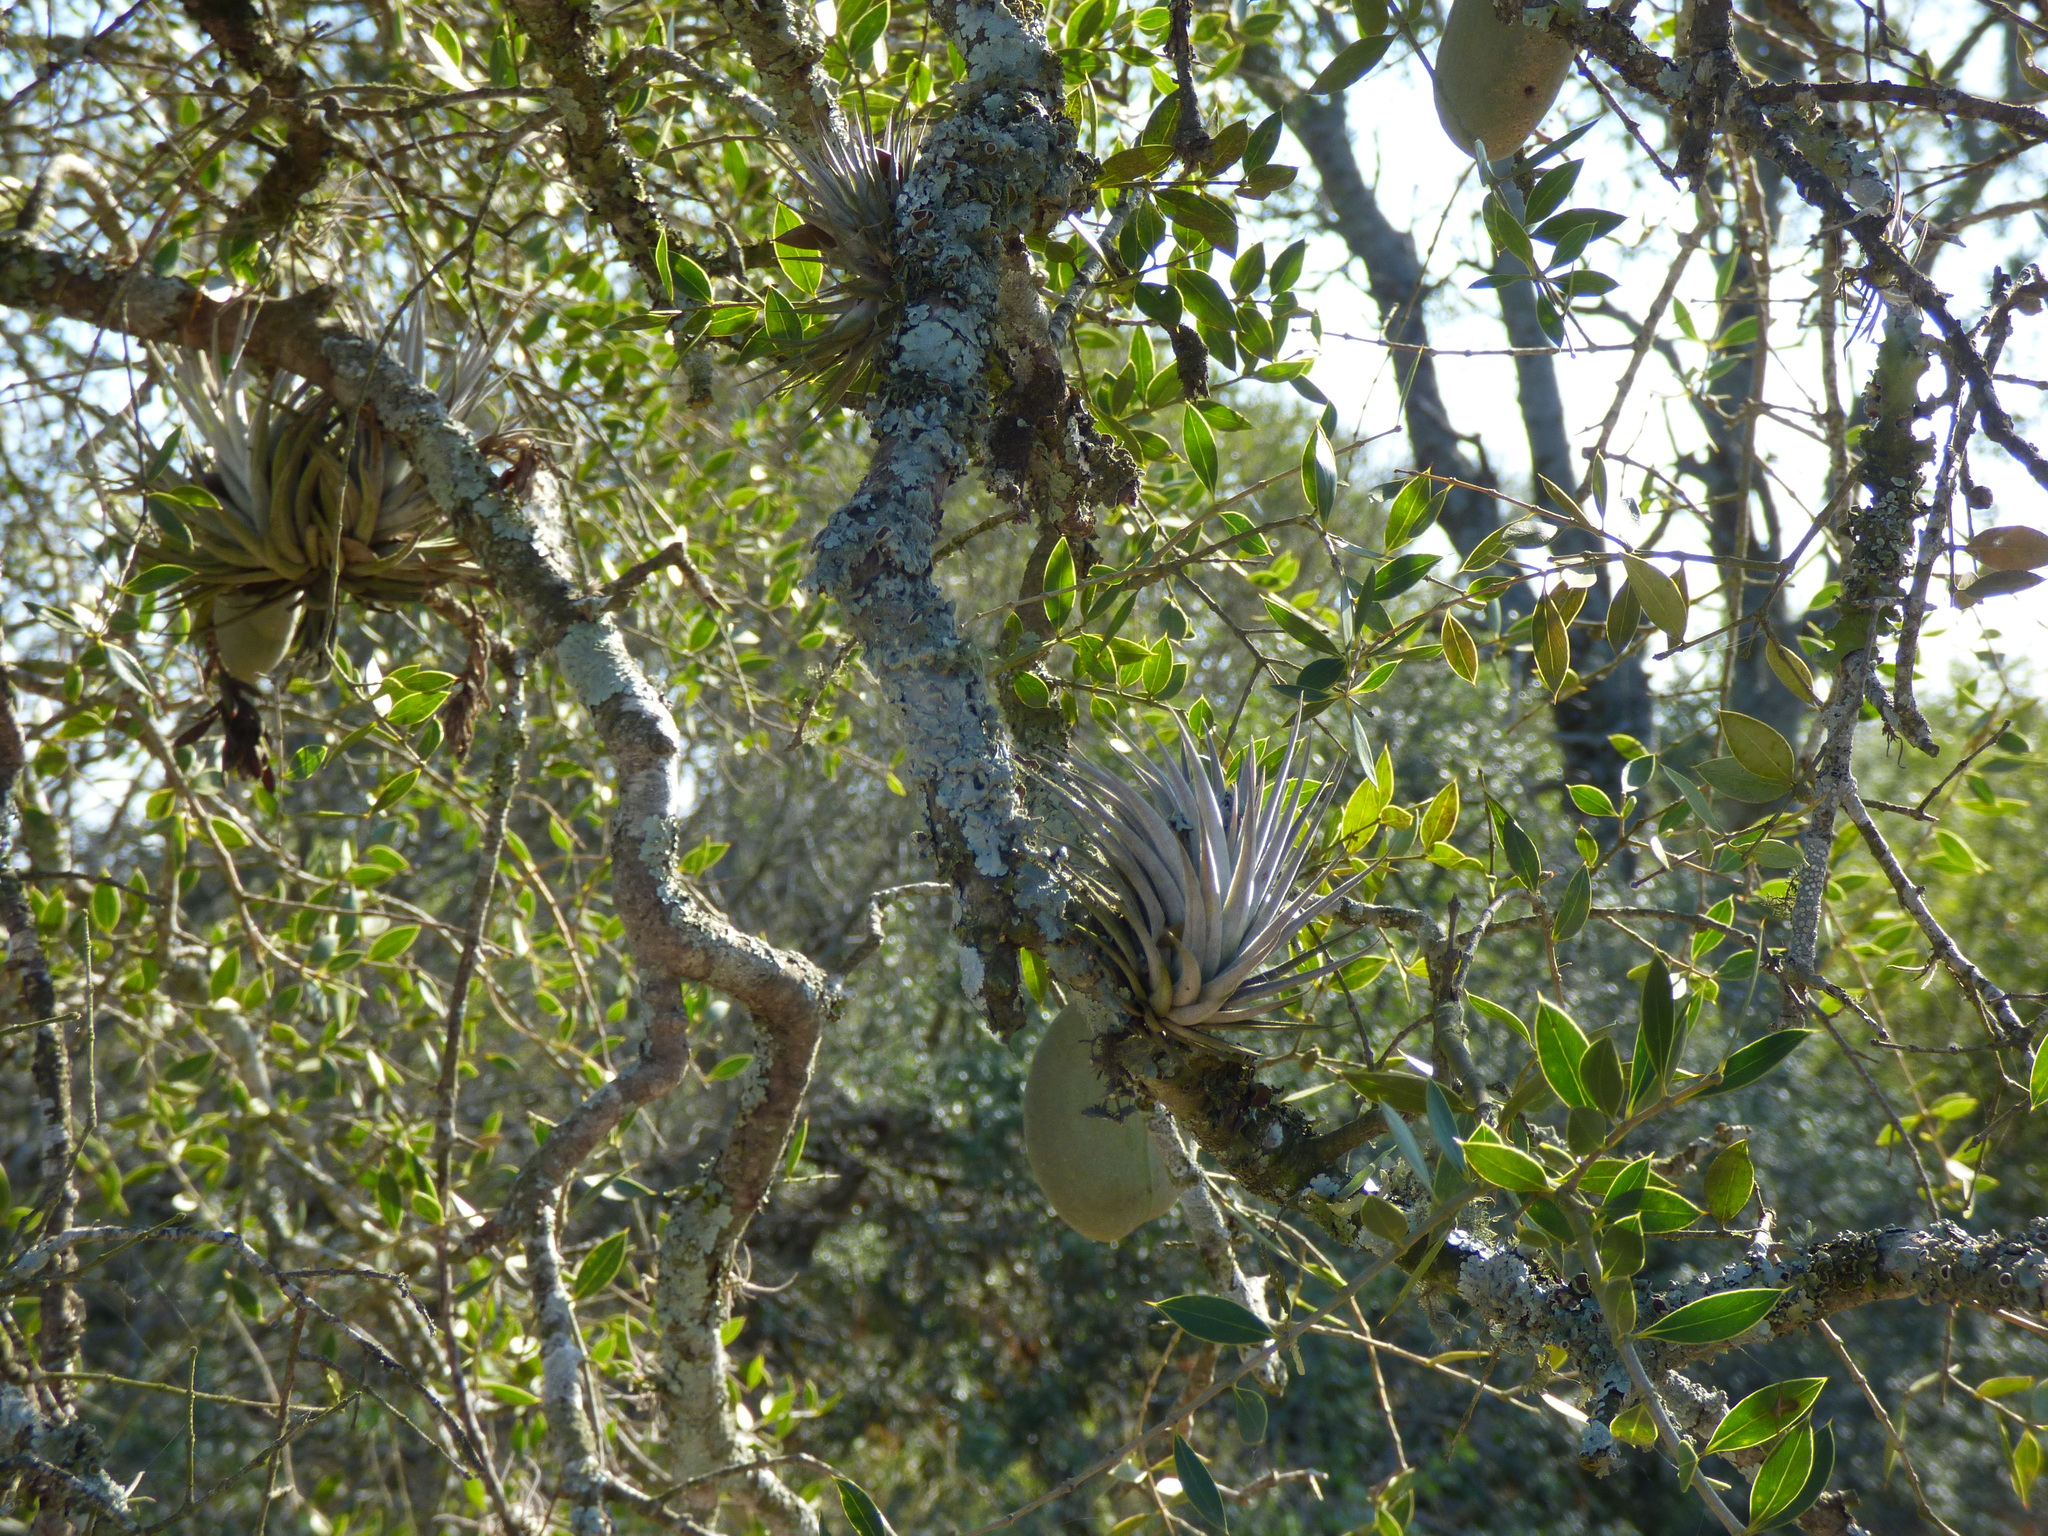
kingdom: Plantae
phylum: Tracheophyta
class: Liliopsida
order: Poales
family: Bromeliaceae
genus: Tillandsia
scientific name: Tillandsia recurvifolia
